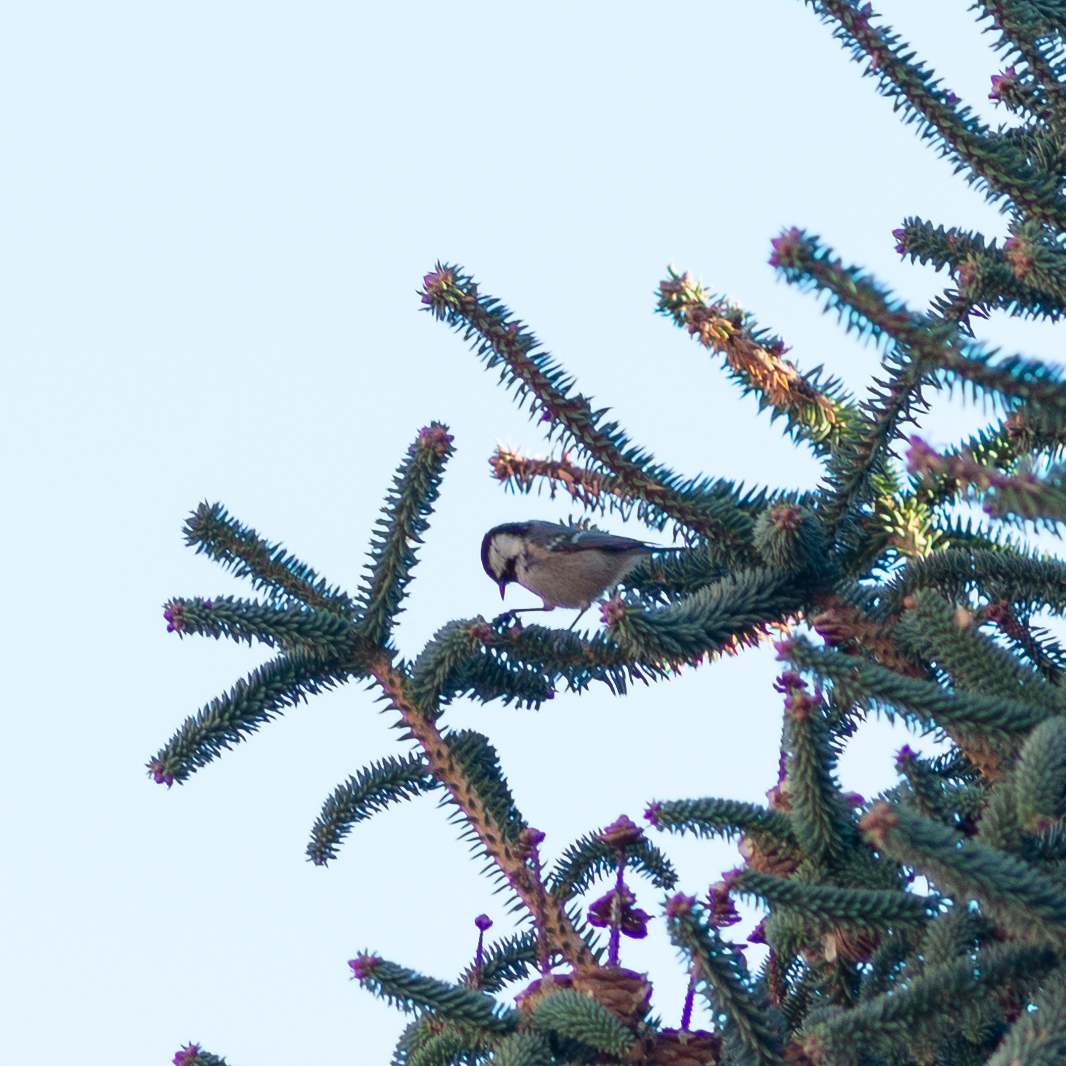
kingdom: Animalia
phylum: Chordata
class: Aves
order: Passeriformes
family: Paridae
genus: Periparus
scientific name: Periparus ater
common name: Coal tit
